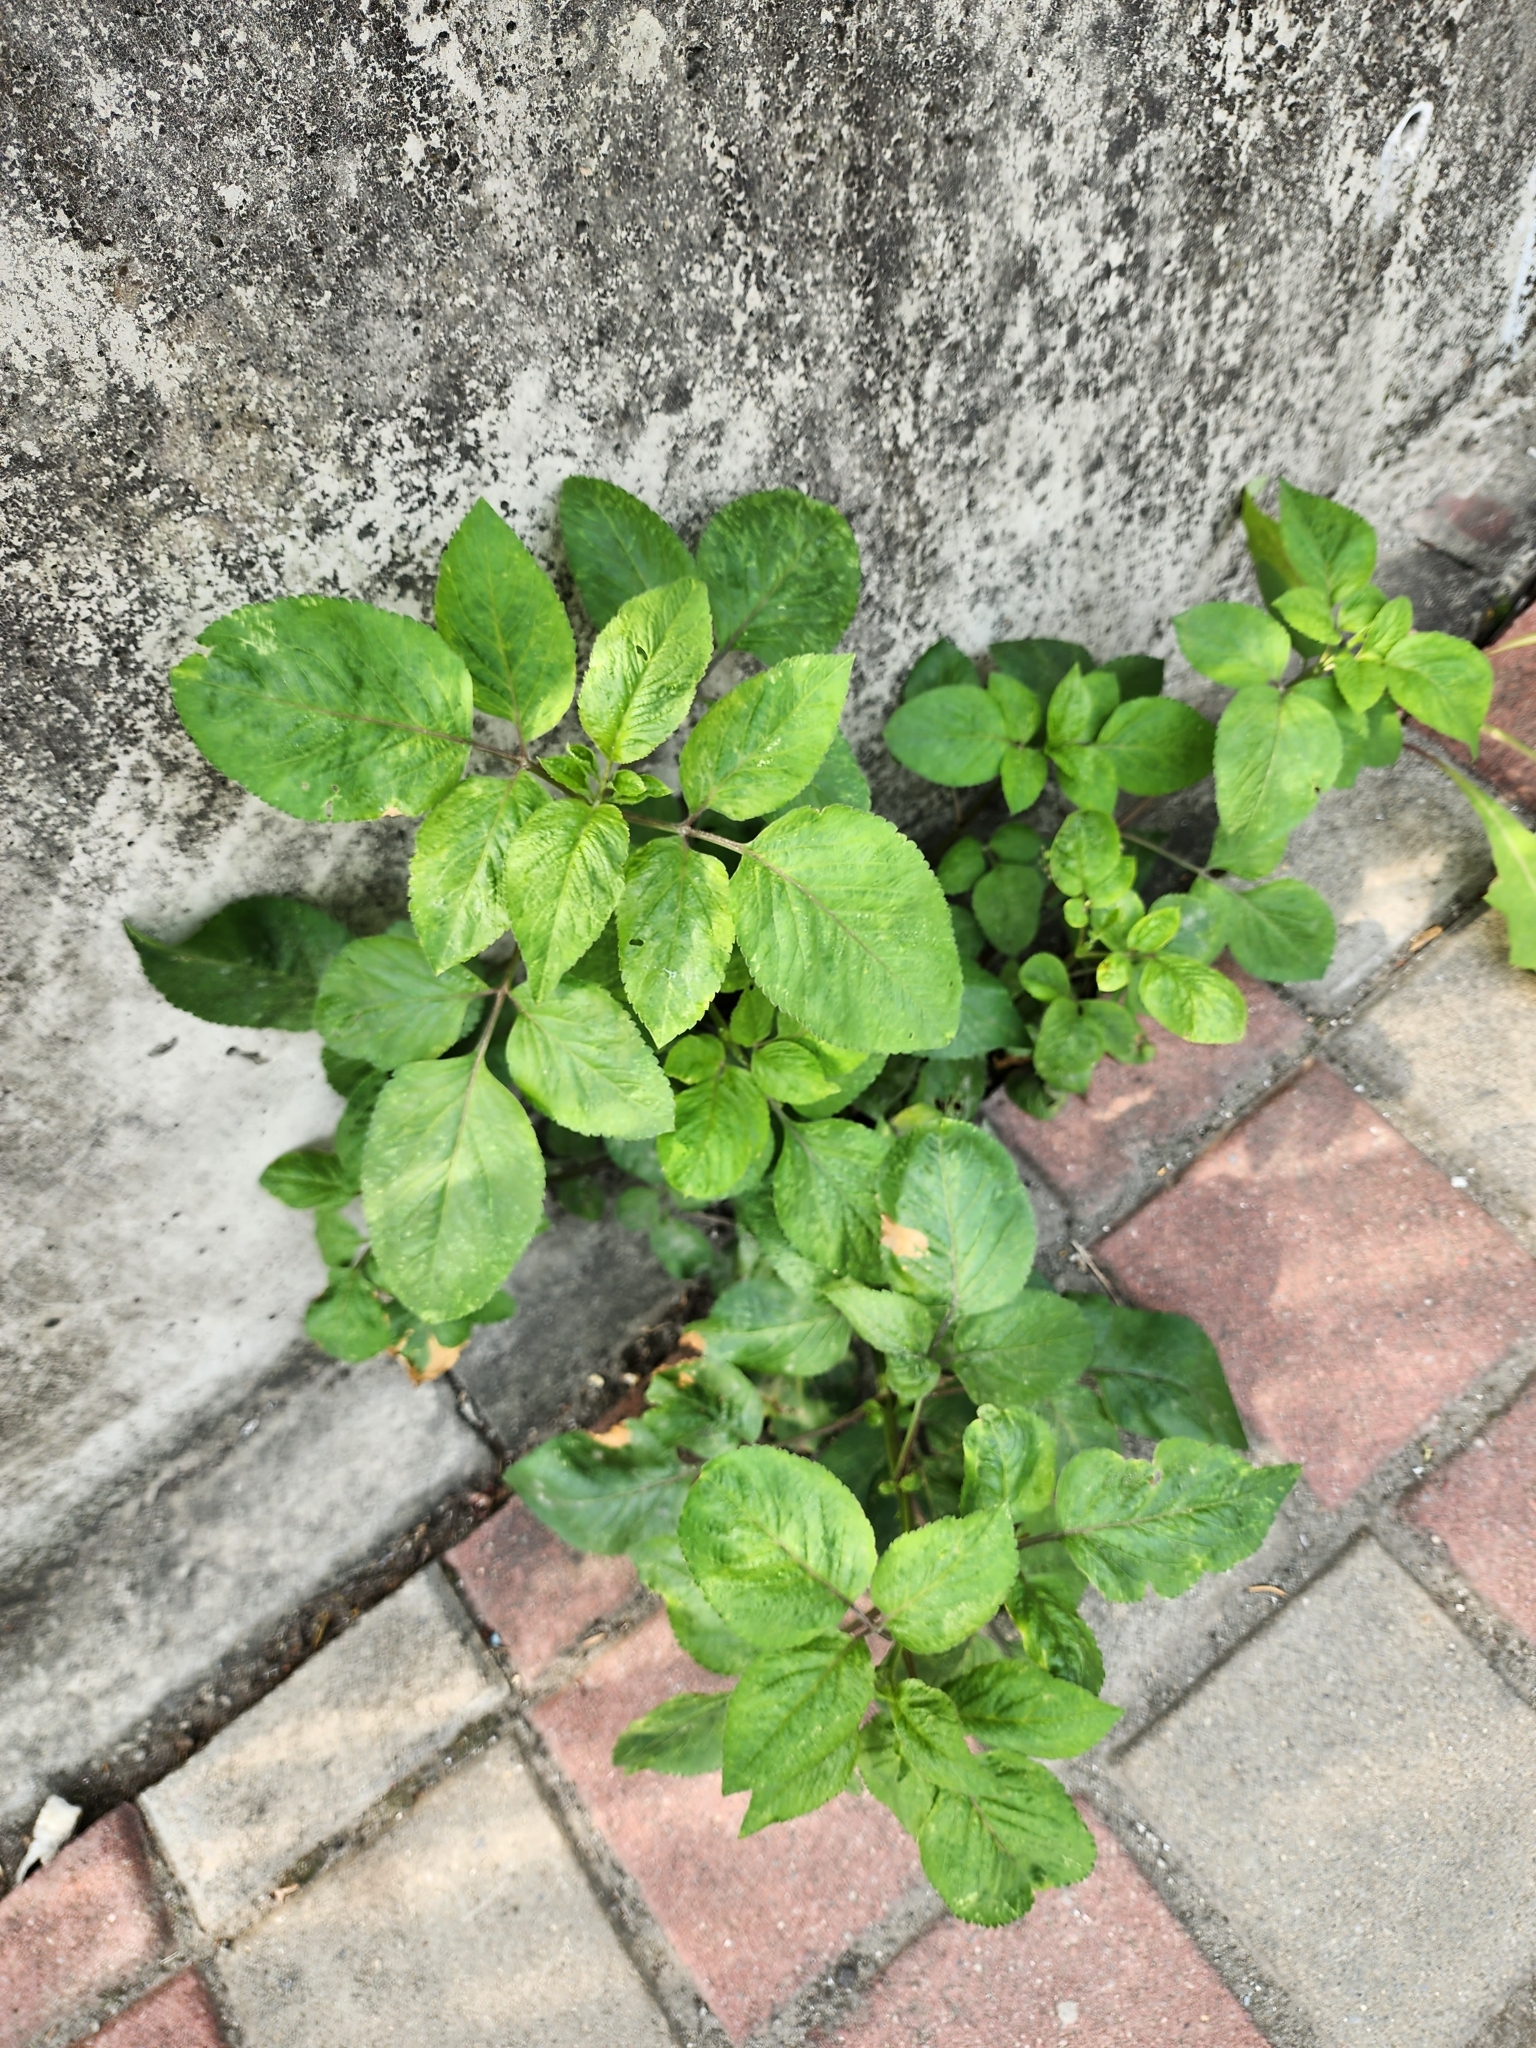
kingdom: Plantae
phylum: Tracheophyta
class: Magnoliopsida
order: Asterales
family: Asteraceae
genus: Bidens
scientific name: Bidens alba
